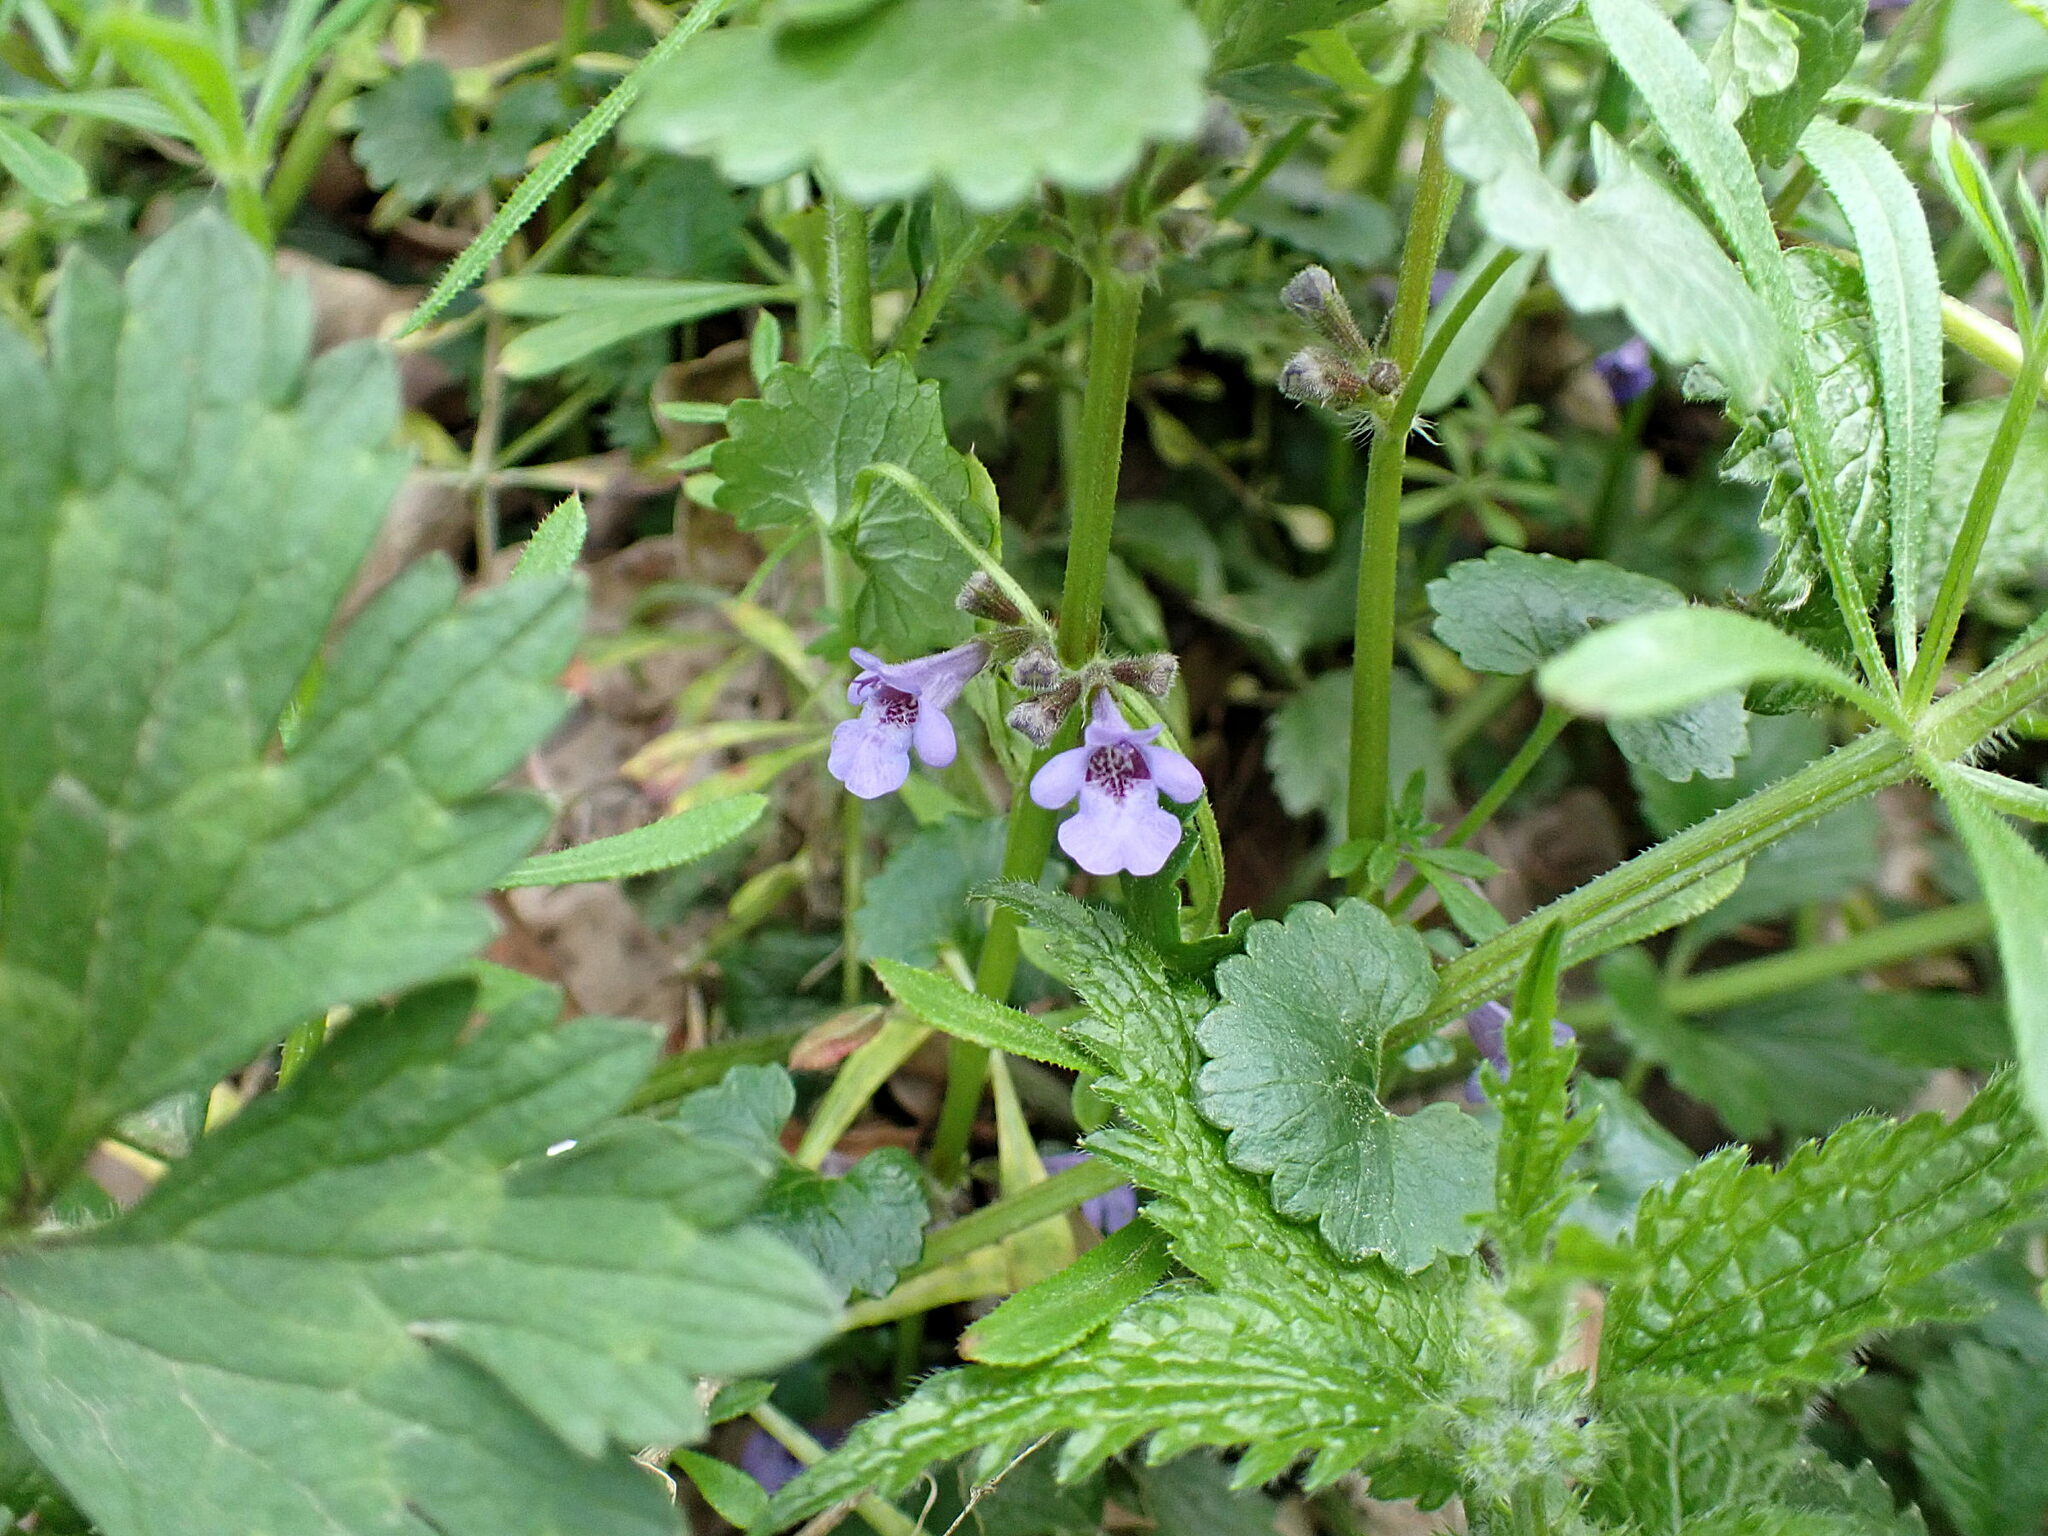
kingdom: Plantae
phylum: Tracheophyta
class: Magnoliopsida
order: Lamiales
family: Lamiaceae
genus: Glechoma
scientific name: Glechoma hederacea
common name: Ground ivy
